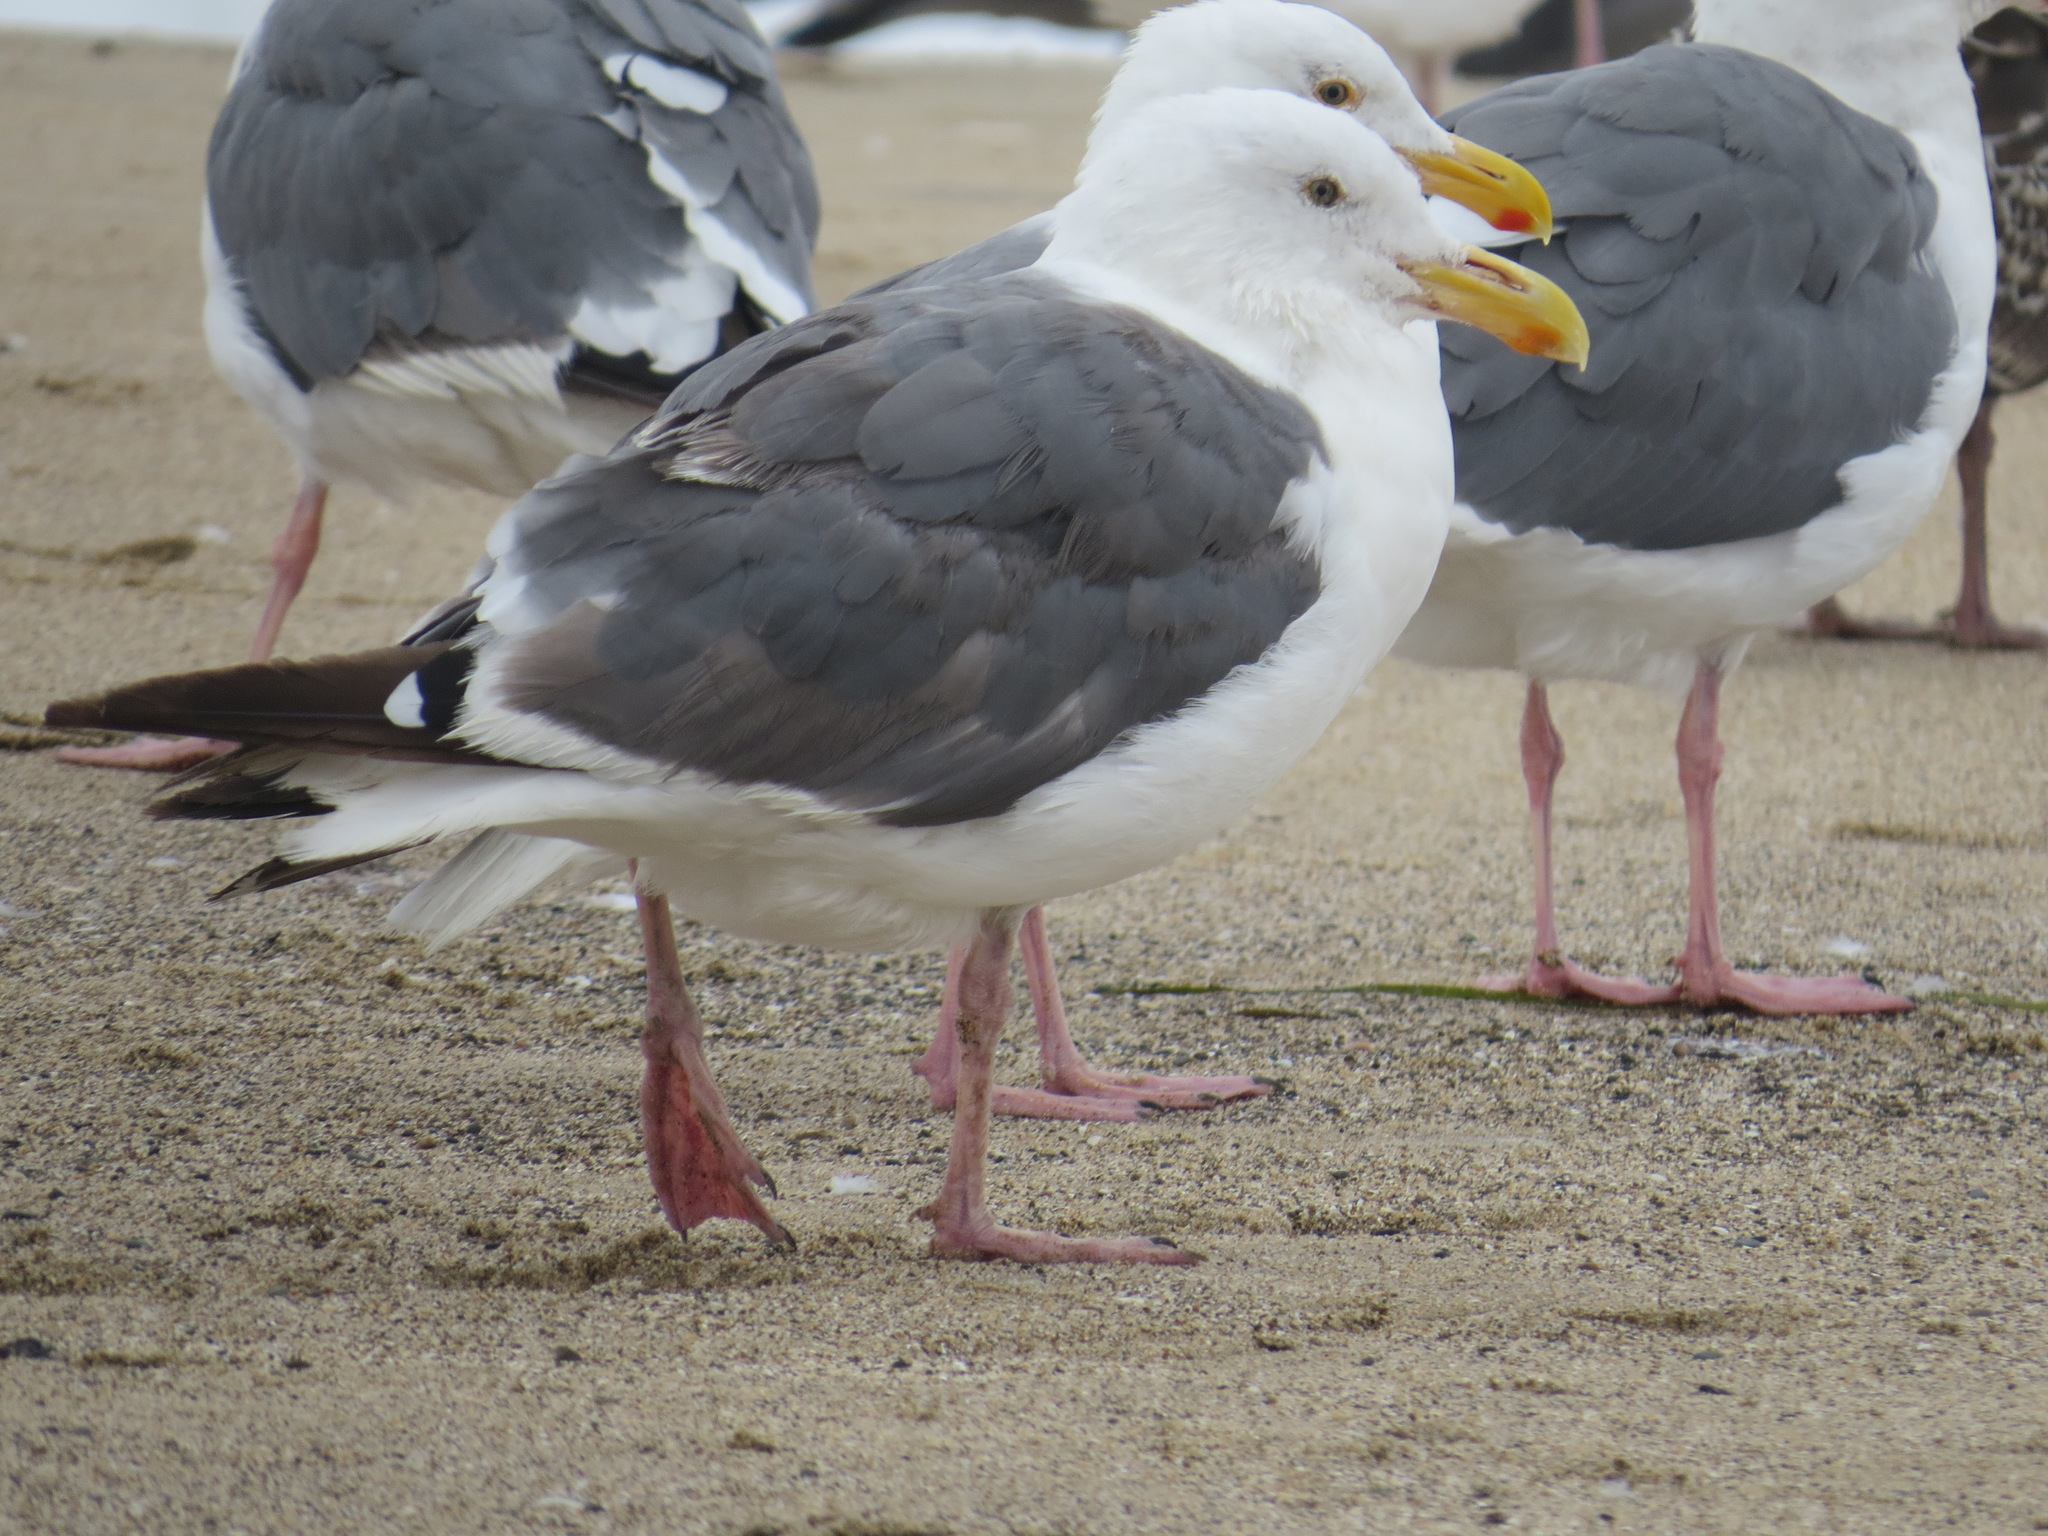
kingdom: Animalia
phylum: Chordata
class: Aves
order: Charadriiformes
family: Laridae
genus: Larus
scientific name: Larus occidentalis
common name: Western gull
